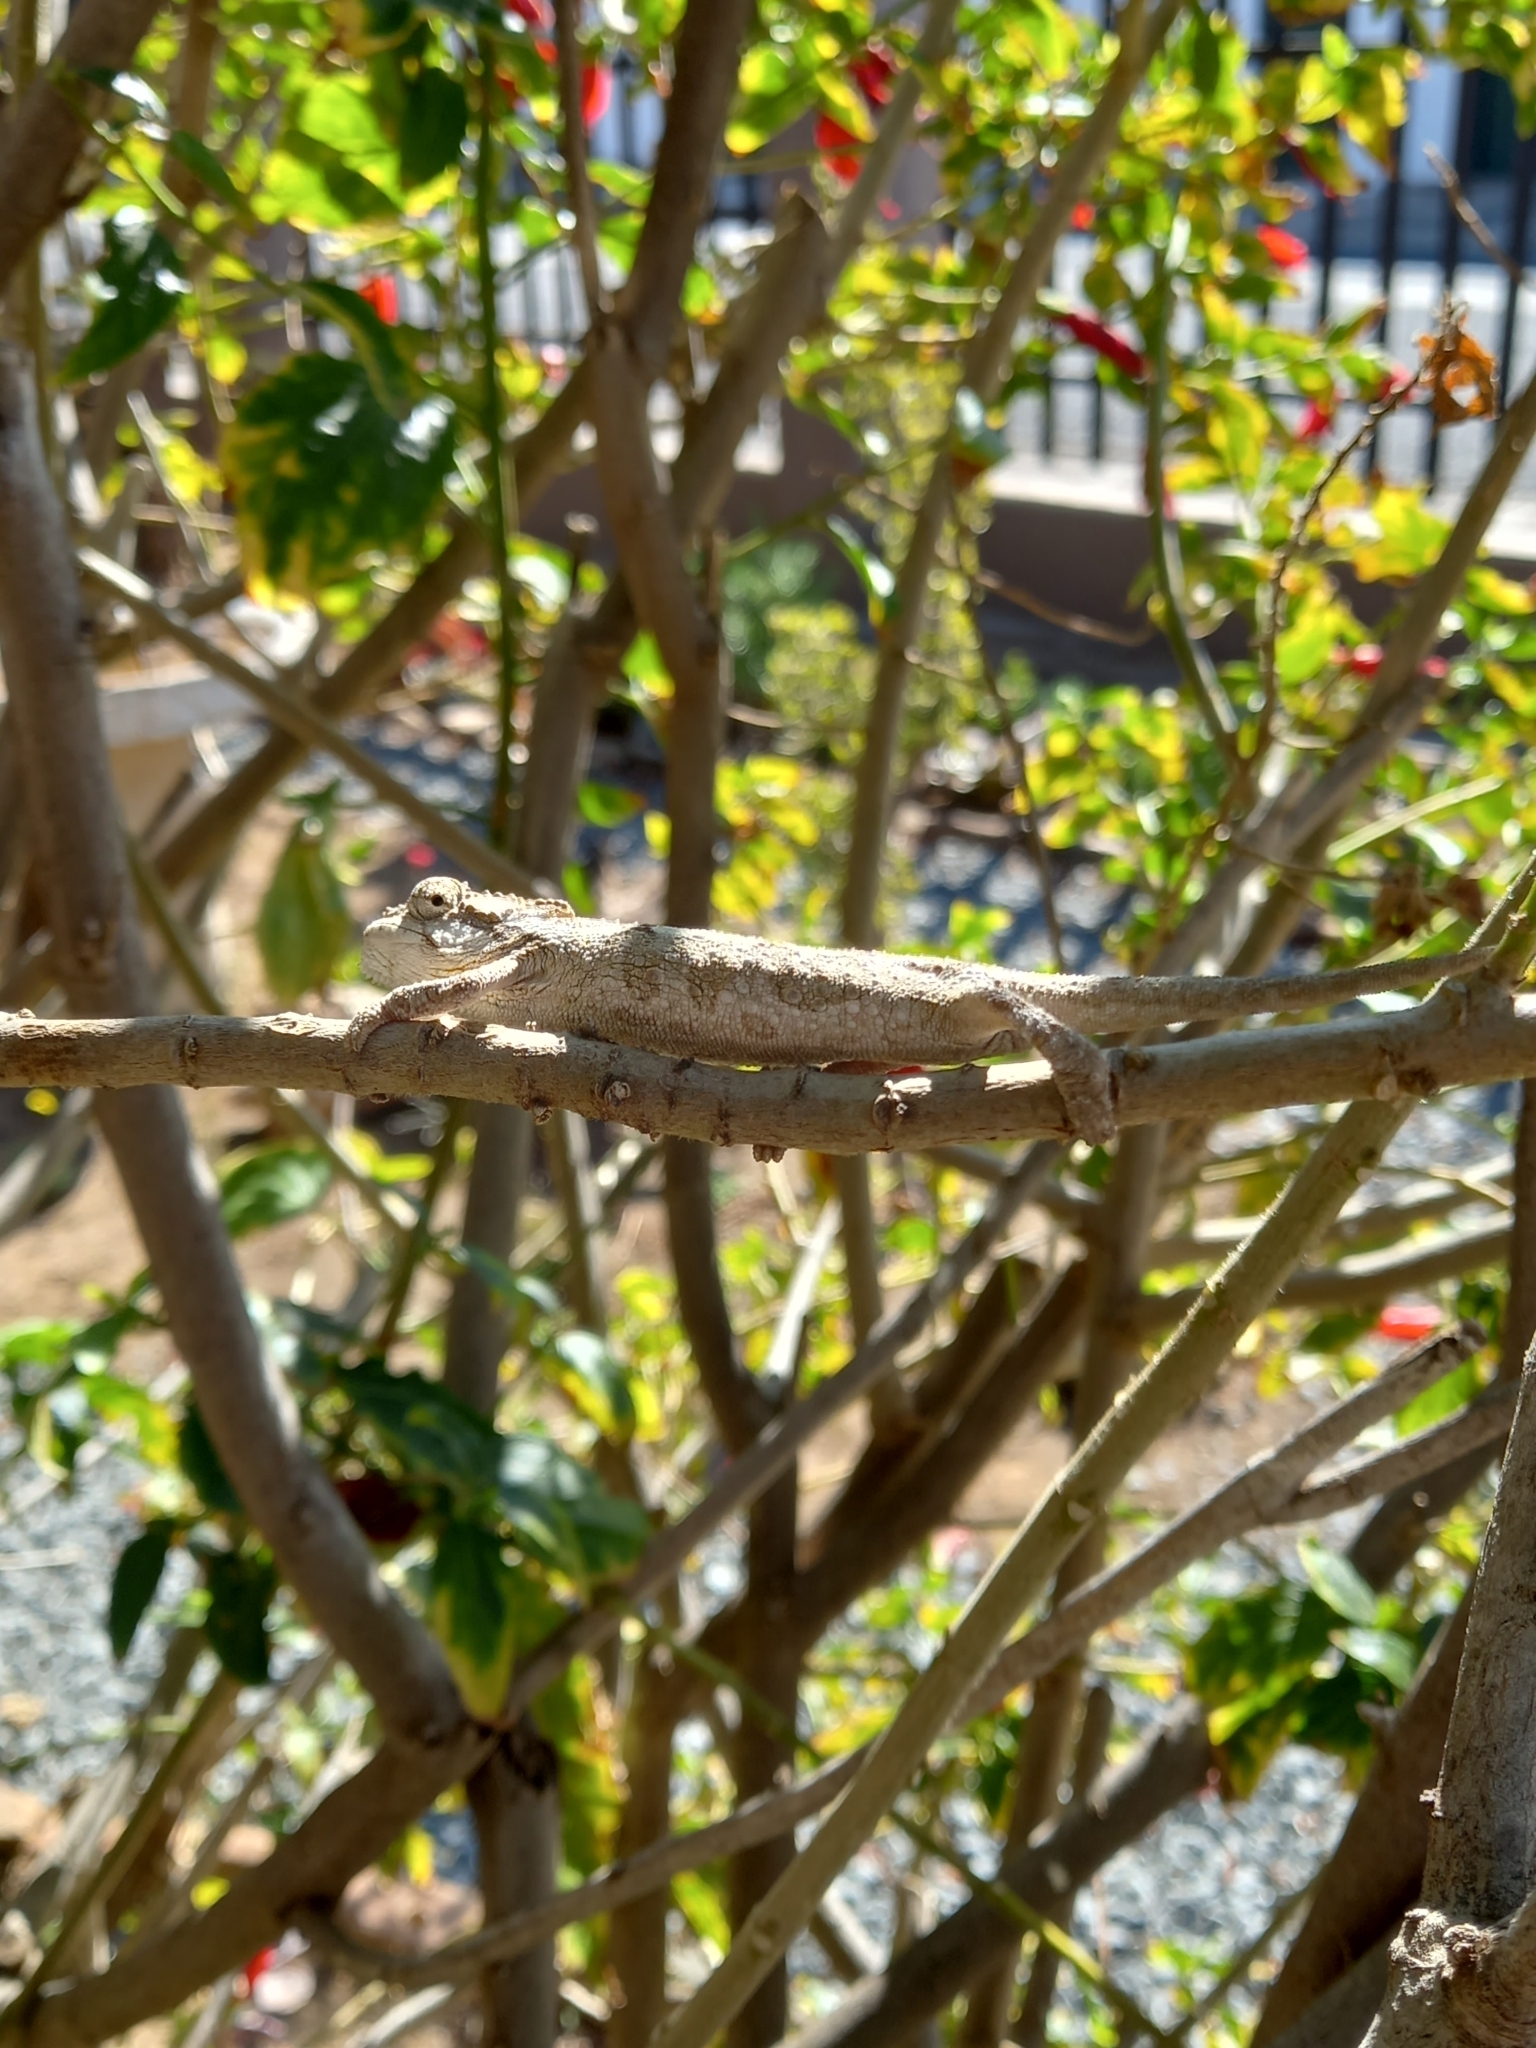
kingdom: Animalia
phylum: Chordata
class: Squamata
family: Chamaeleonidae
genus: Bradypodion
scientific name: Bradypodion ventrale
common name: Eastern cape dwarf chameleon
